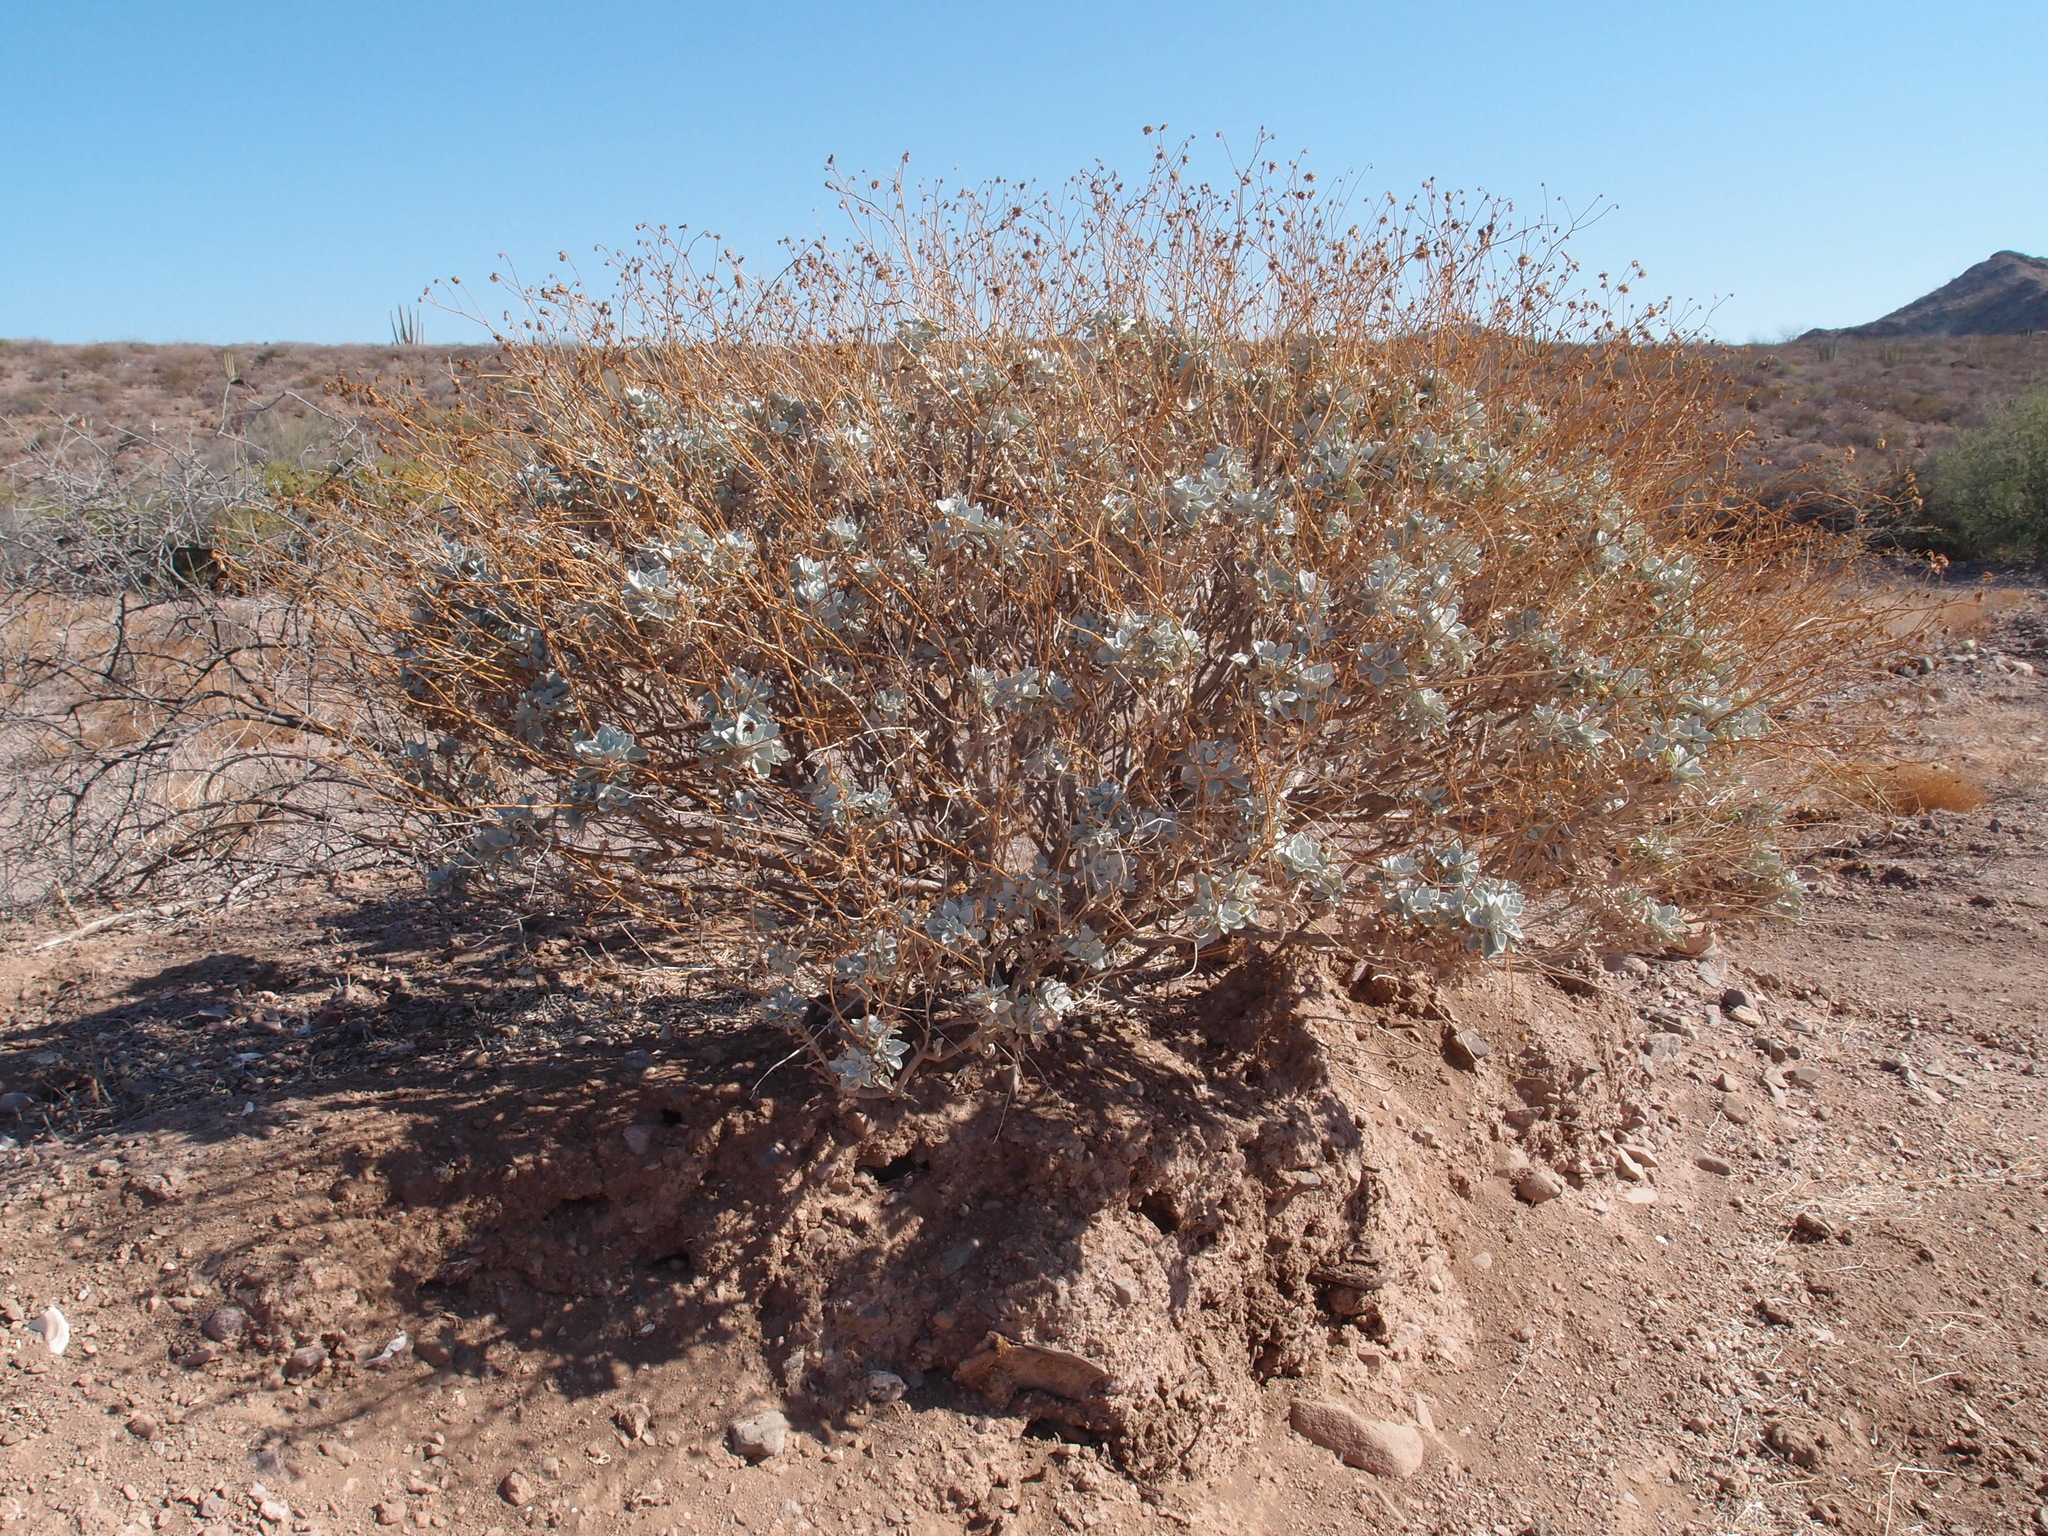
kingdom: Plantae
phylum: Tracheophyta
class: Magnoliopsida
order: Asterales
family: Asteraceae
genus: Encelia
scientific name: Encelia farinosa
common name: Brittlebush
